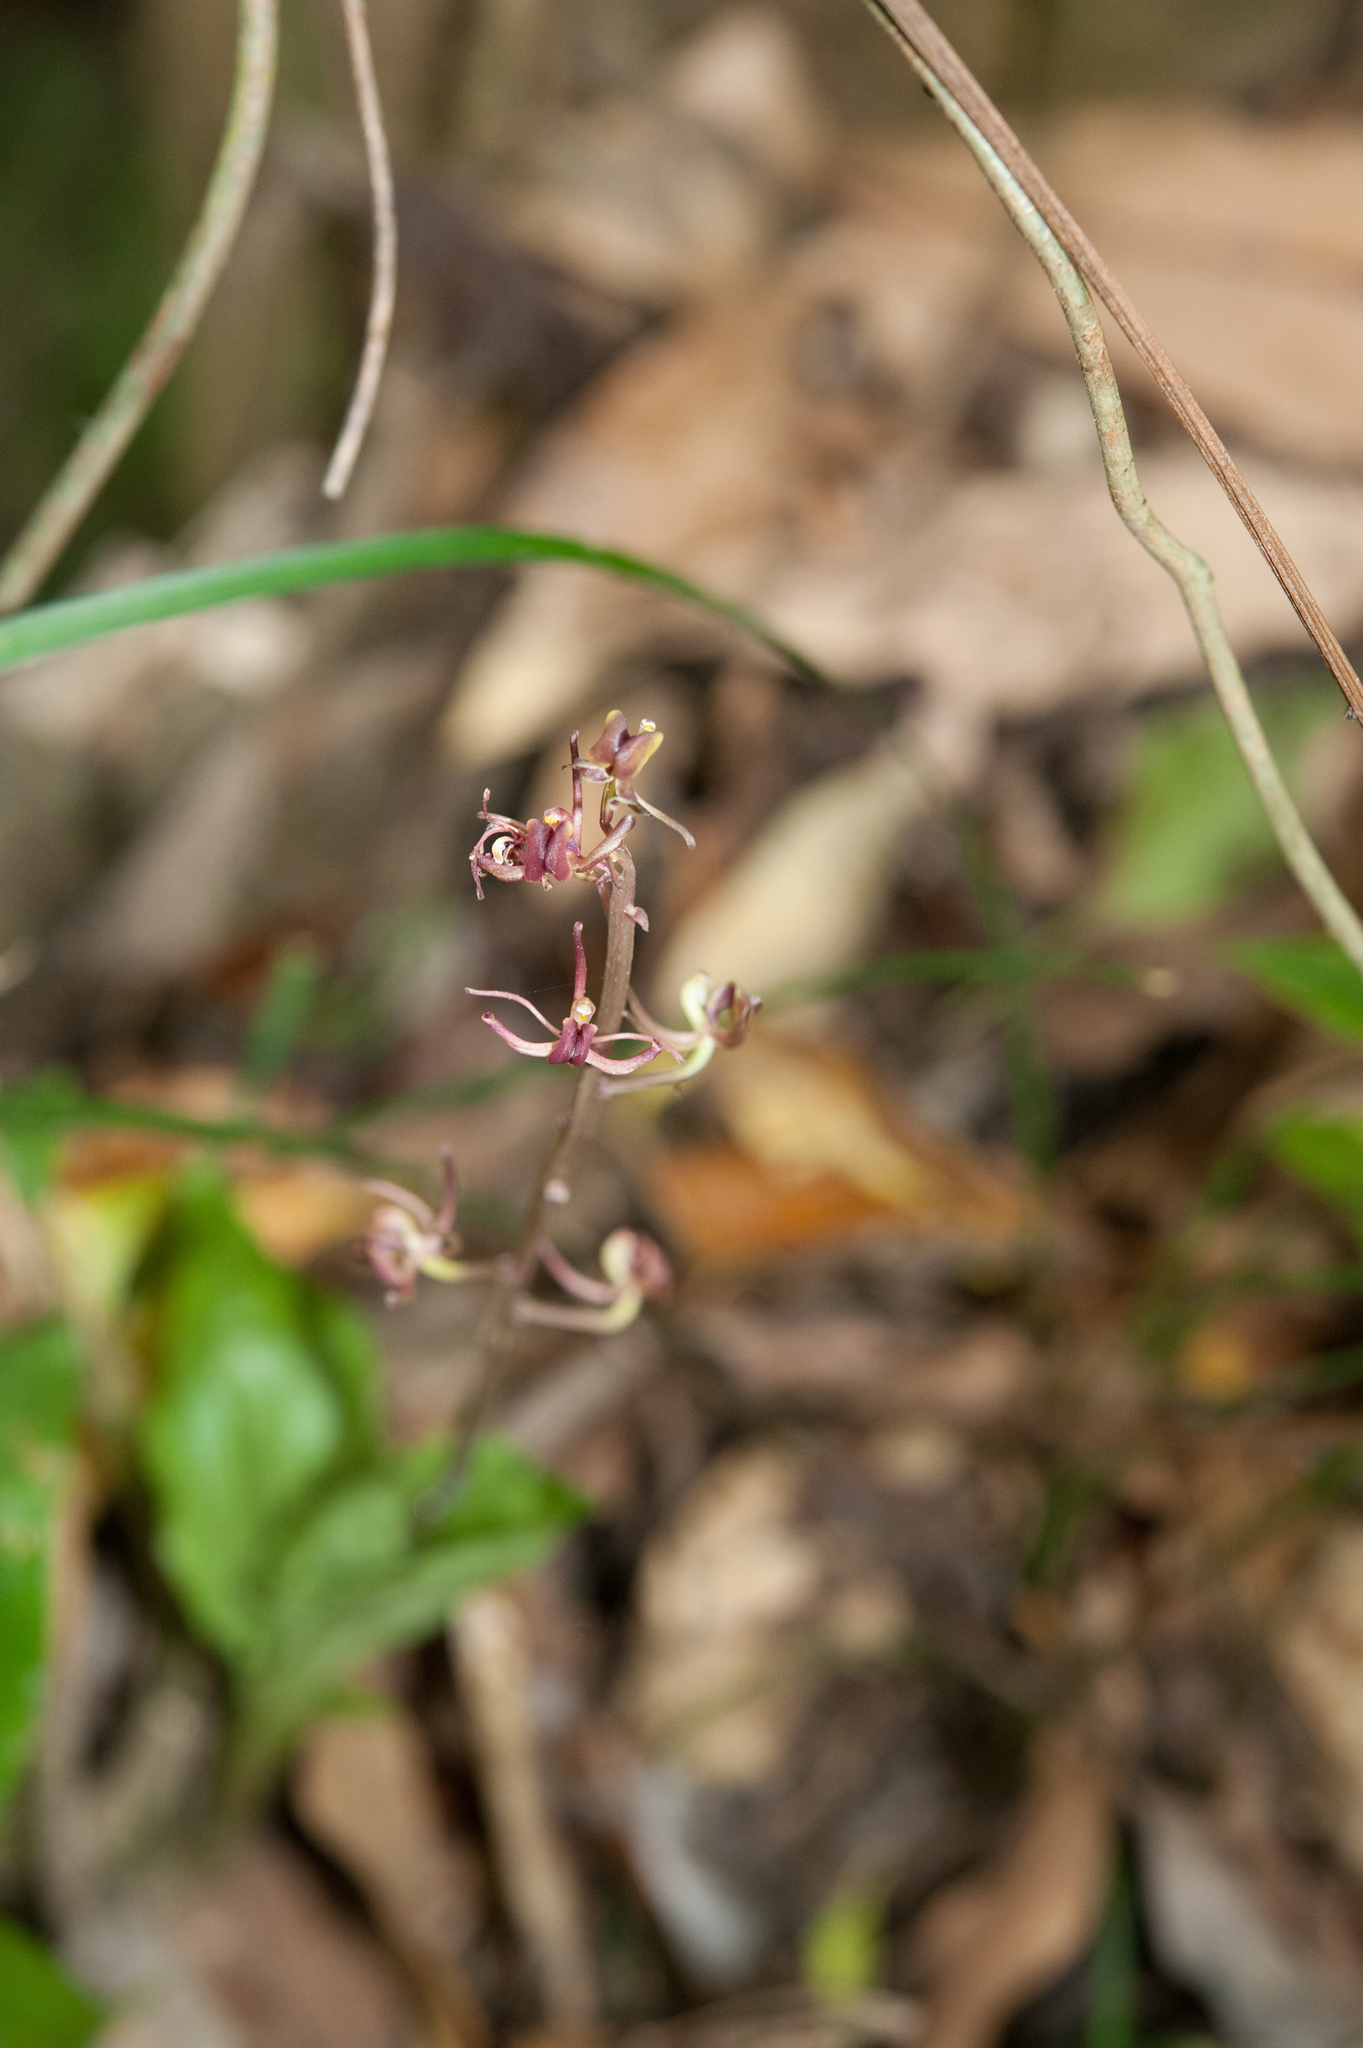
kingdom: Plantae
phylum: Tracheophyta
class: Liliopsida
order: Asparagales
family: Orchidaceae
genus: Liparis
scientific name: Liparis nervosa
